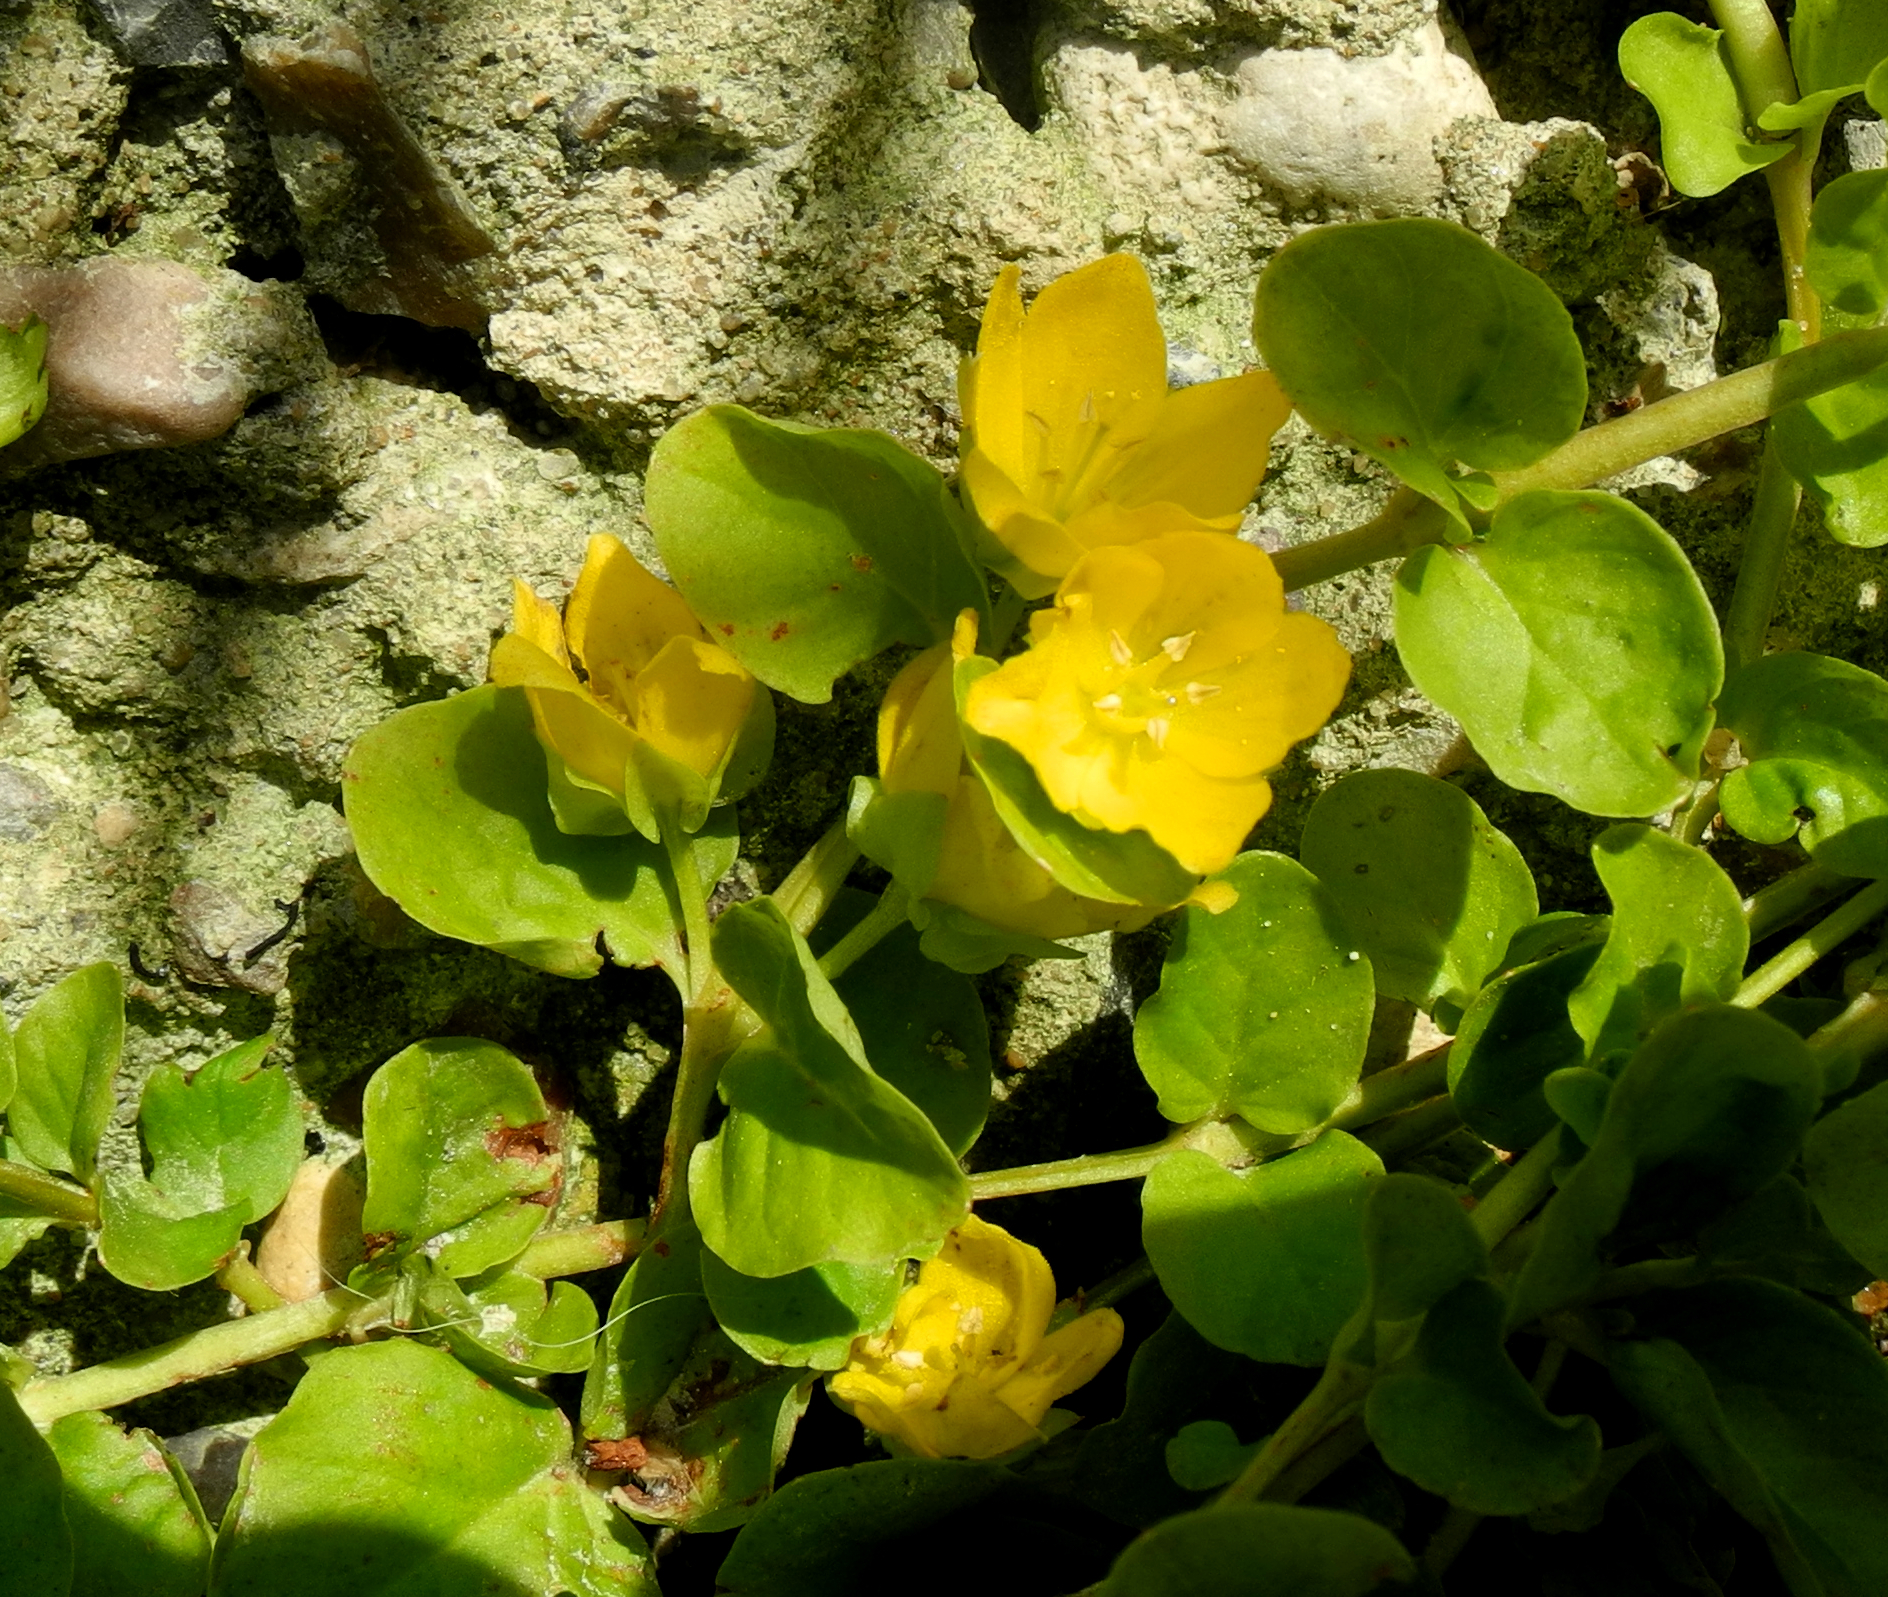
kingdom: Plantae
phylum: Tracheophyta
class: Magnoliopsida
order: Ericales
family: Primulaceae
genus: Lysimachia
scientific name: Lysimachia nummularia
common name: Moneywort
